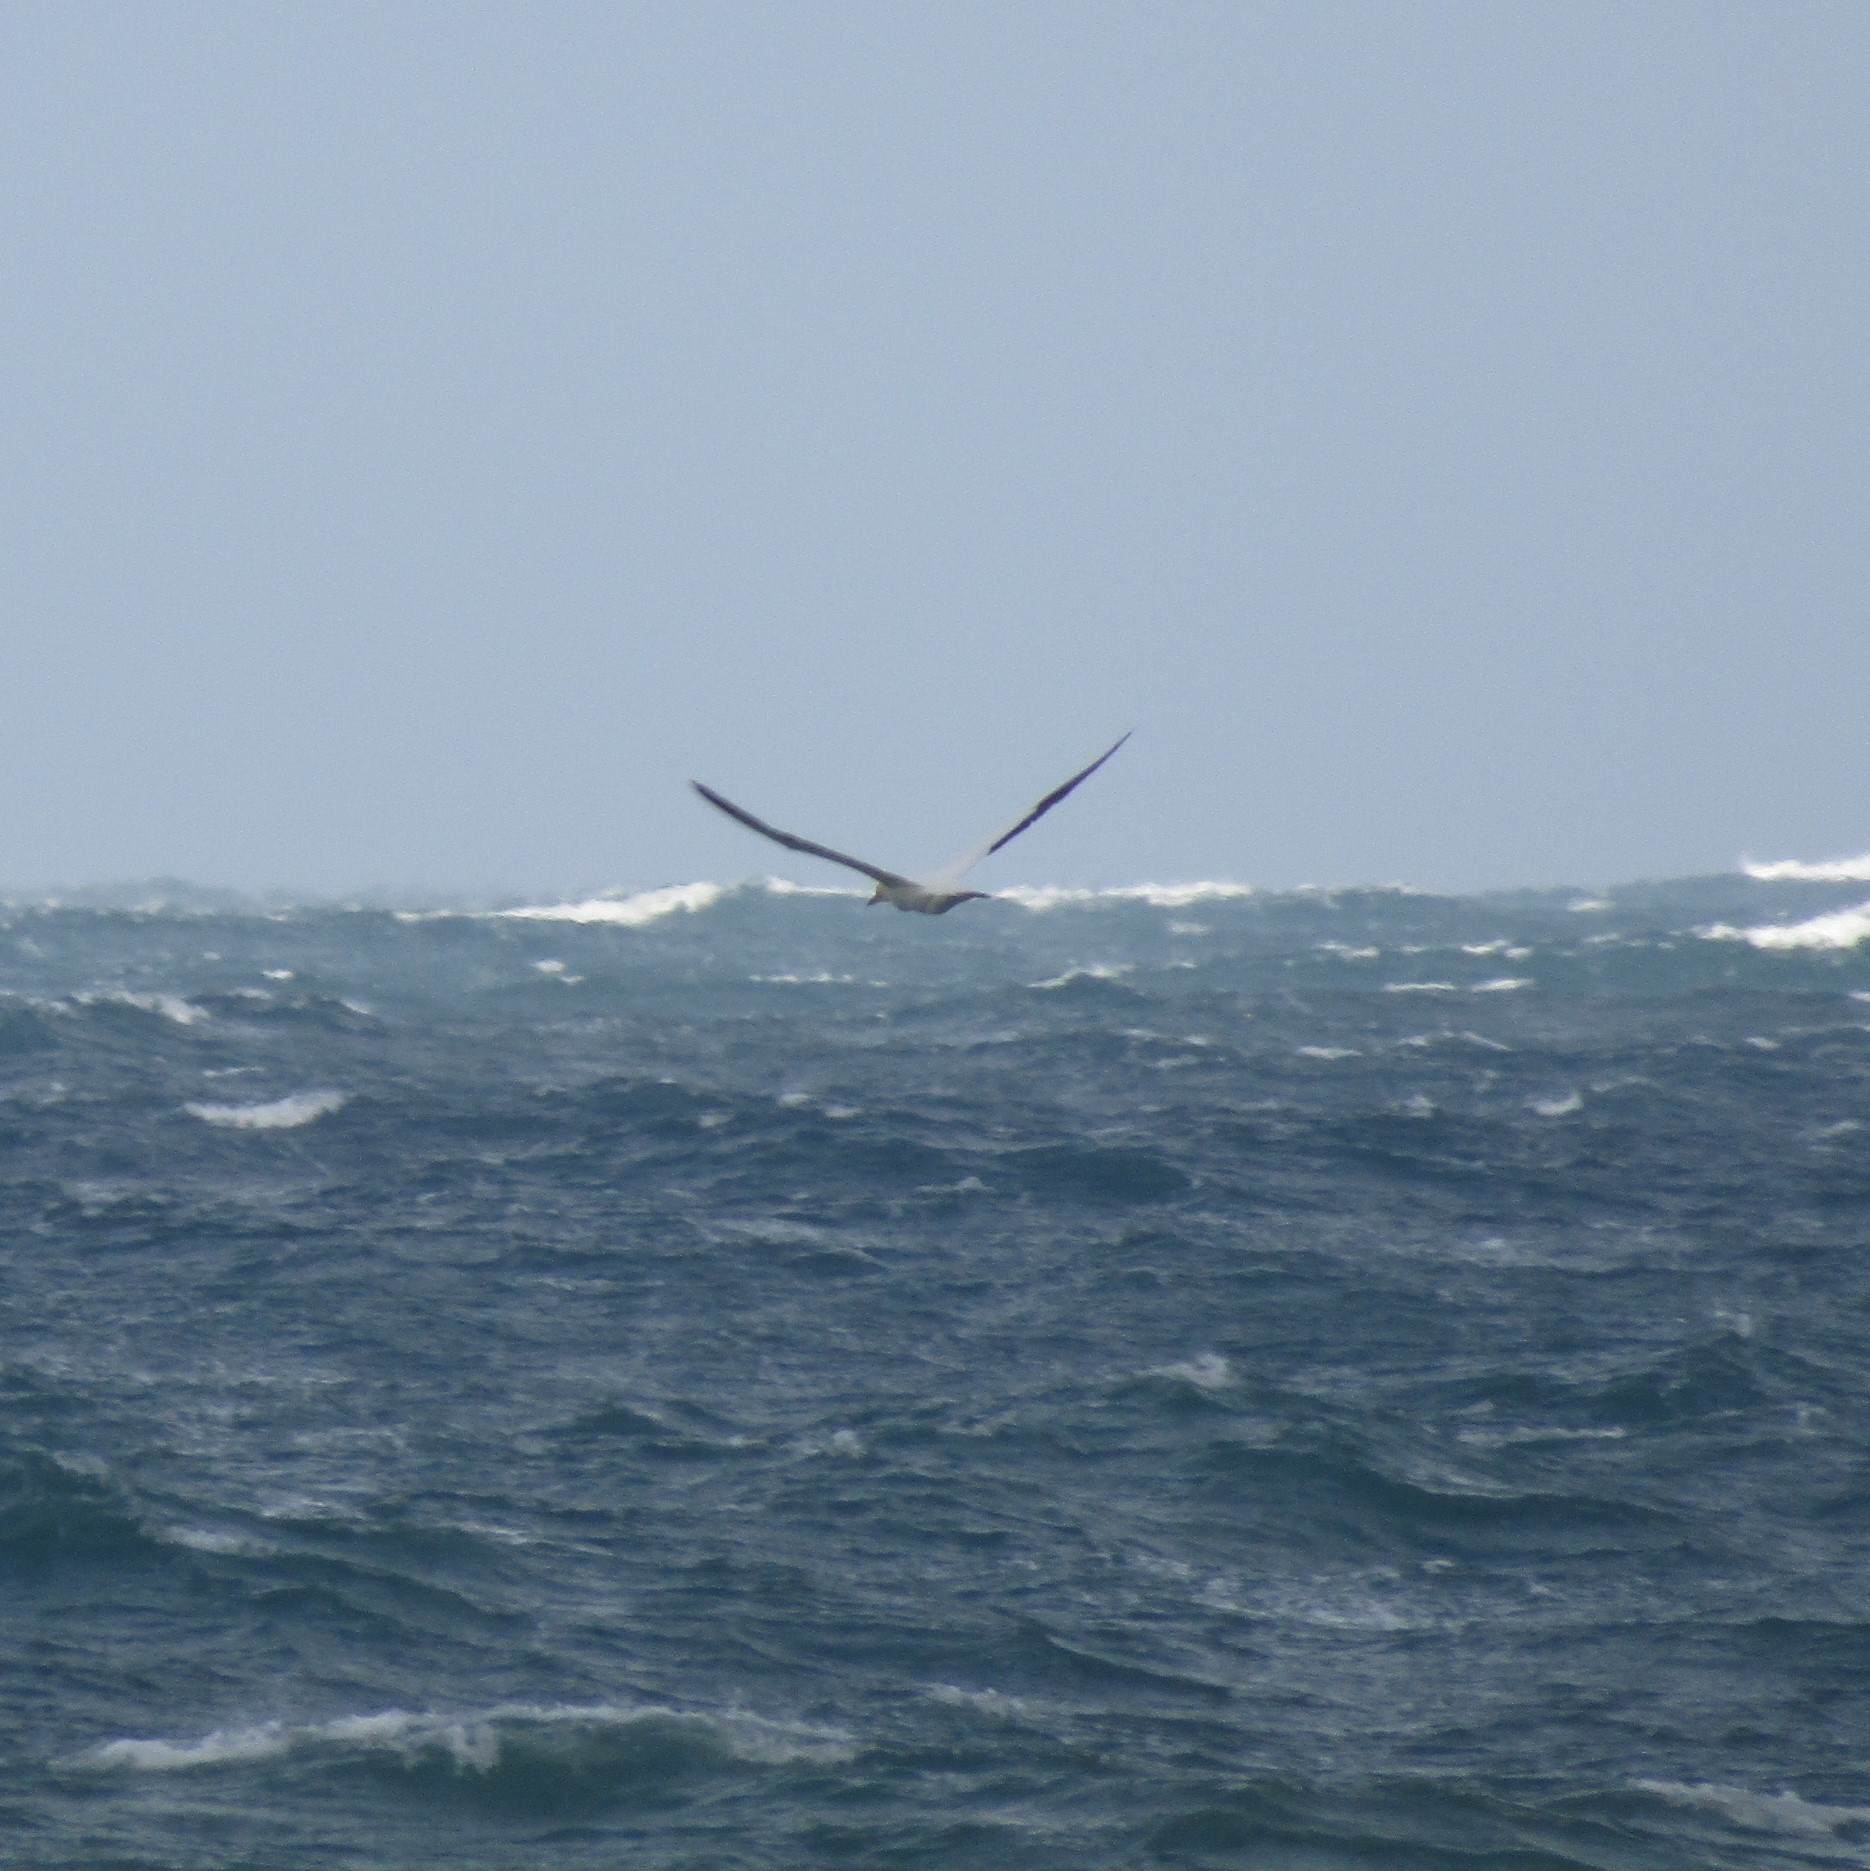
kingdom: Animalia
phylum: Chordata
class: Aves
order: Suliformes
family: Sulidae
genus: Morus
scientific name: Morus serrator
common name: Australasian gannet
